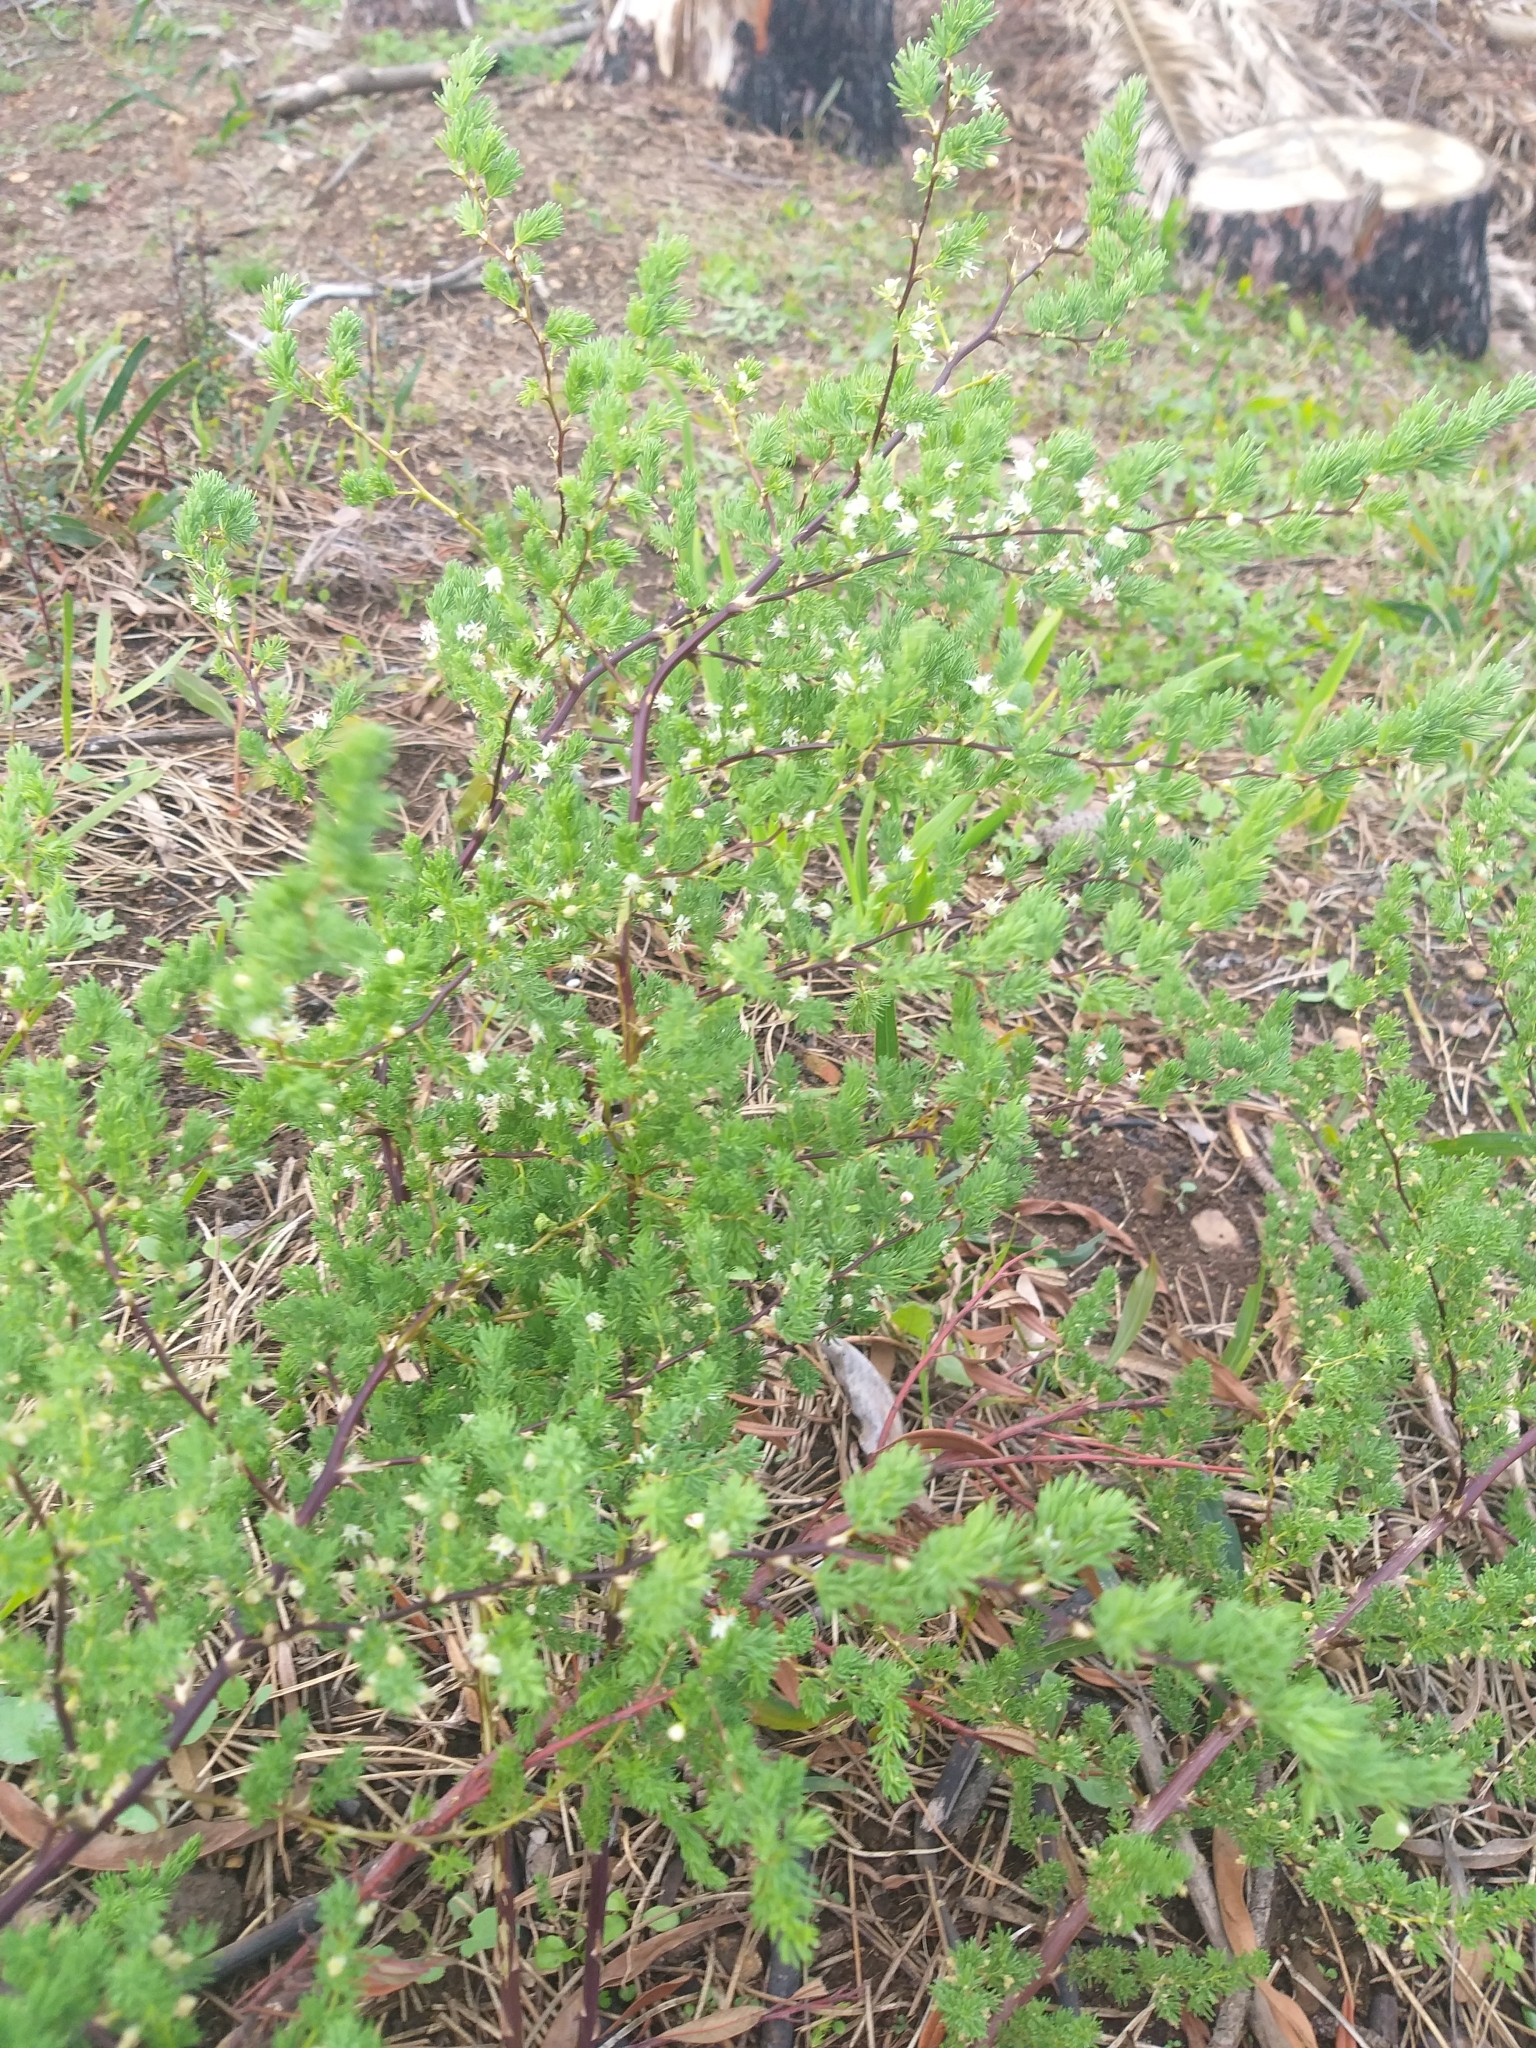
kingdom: Plantae
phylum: Tracheophyta
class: Liliopsida
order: Asparagales
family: Asparagaceae
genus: Asparagus
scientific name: Asparagus rubicundus
